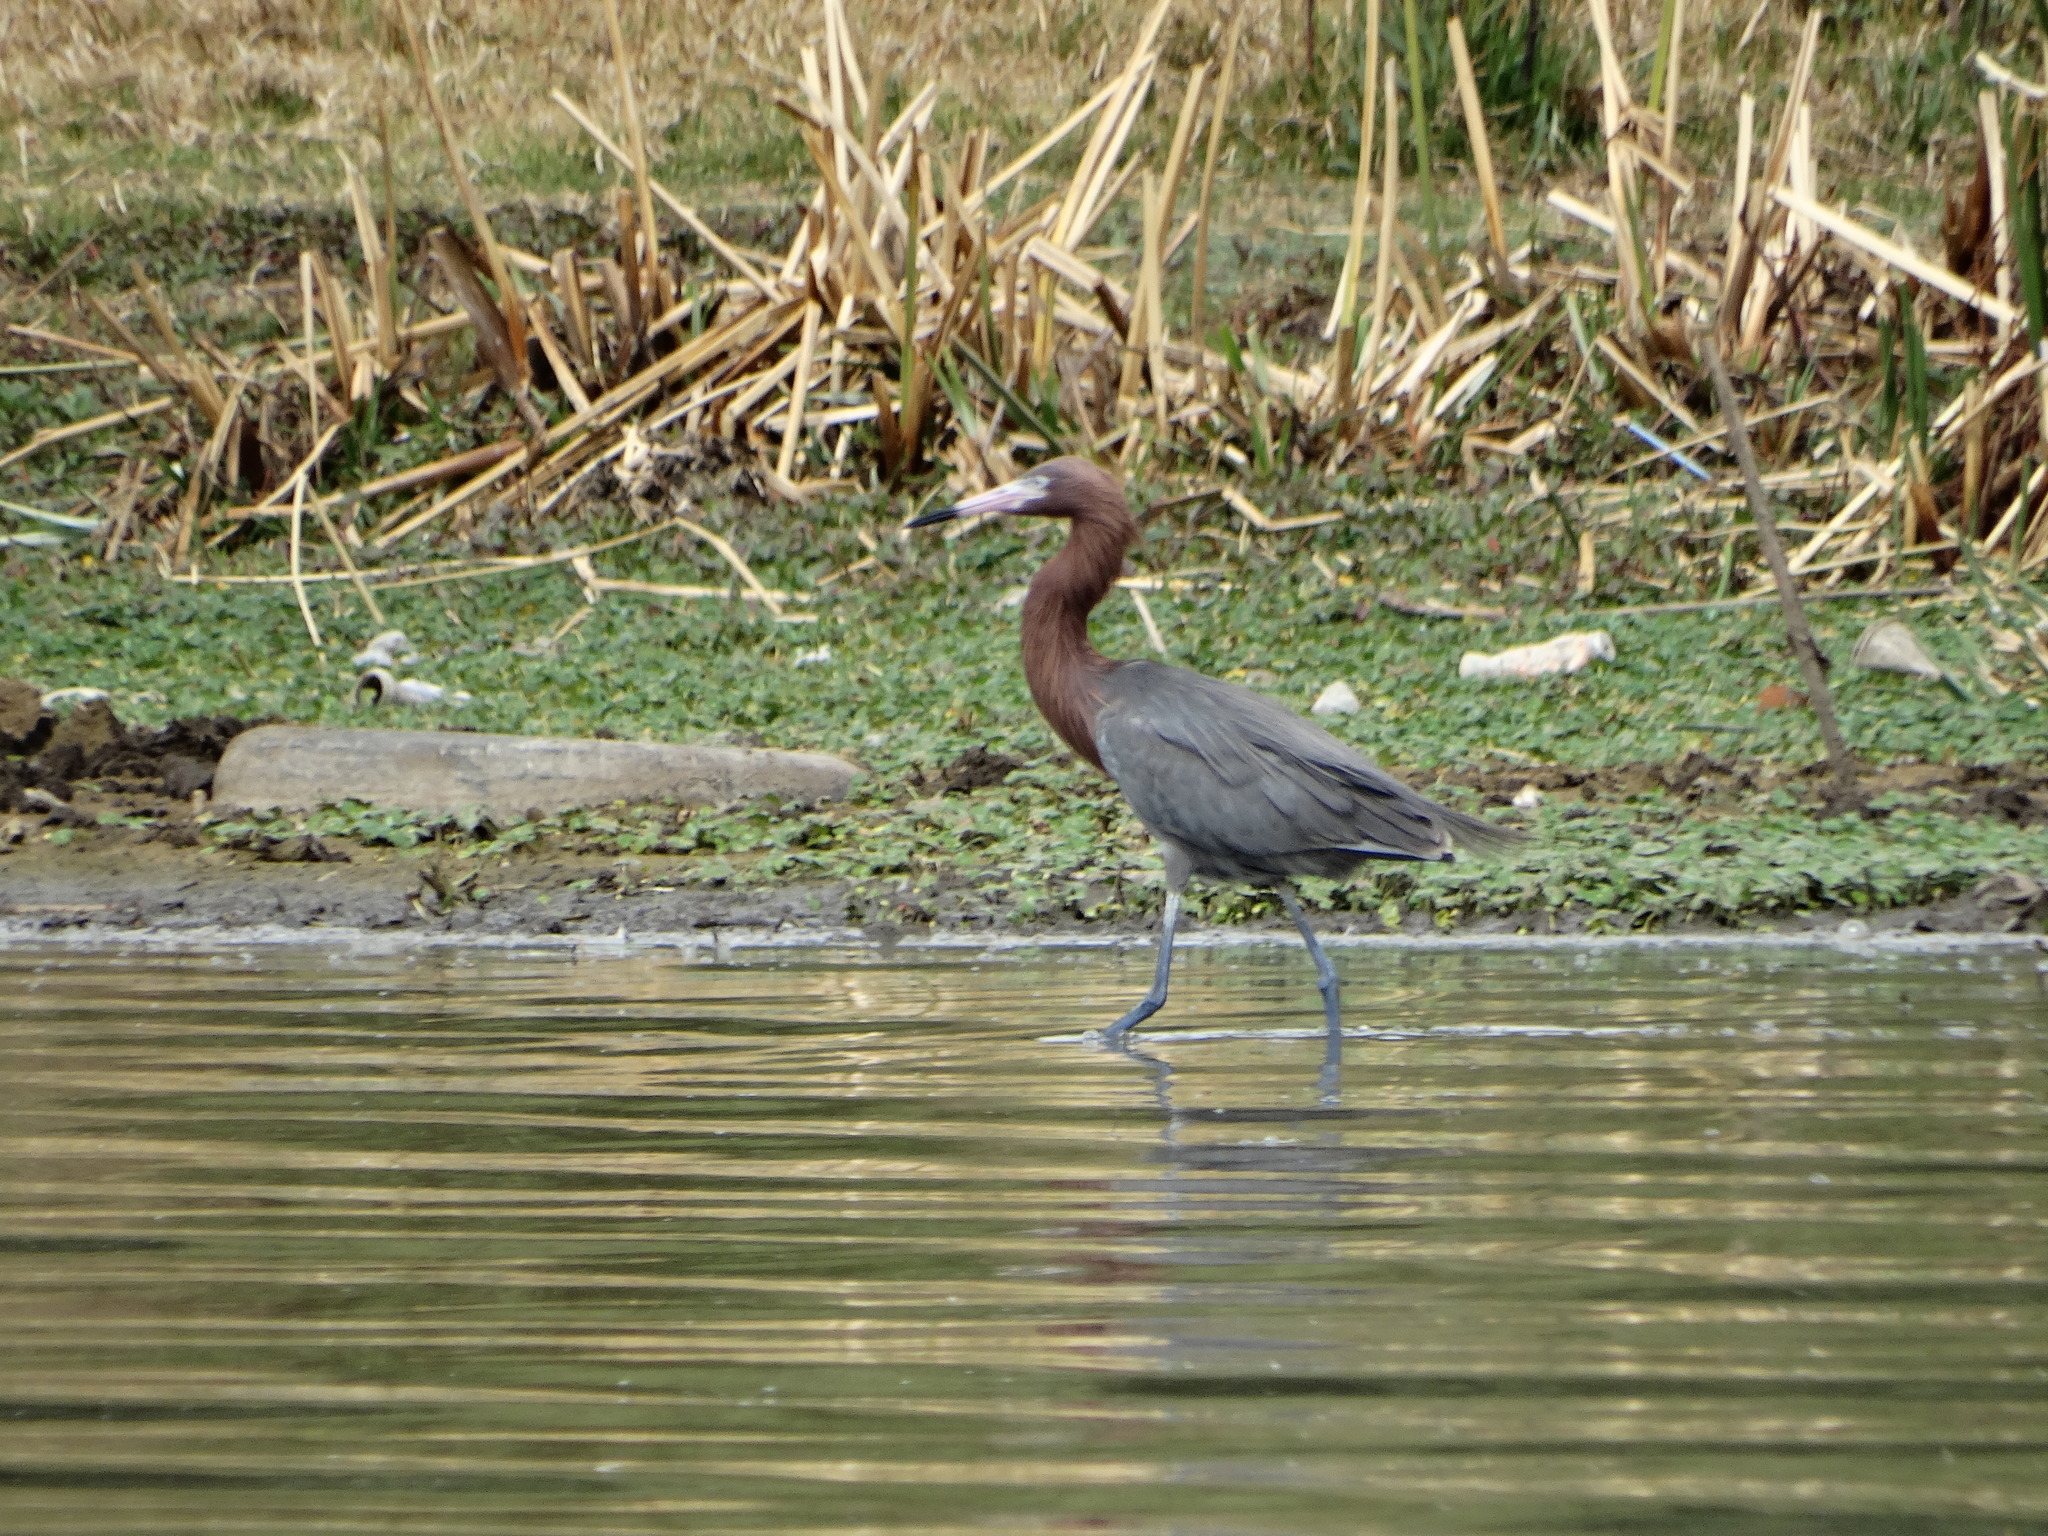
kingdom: Animalia
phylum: Chordata
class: Aves
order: Pelecaniformes
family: Ardeidae
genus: Egretta
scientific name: Egretta rufescens
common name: Reddish egret
